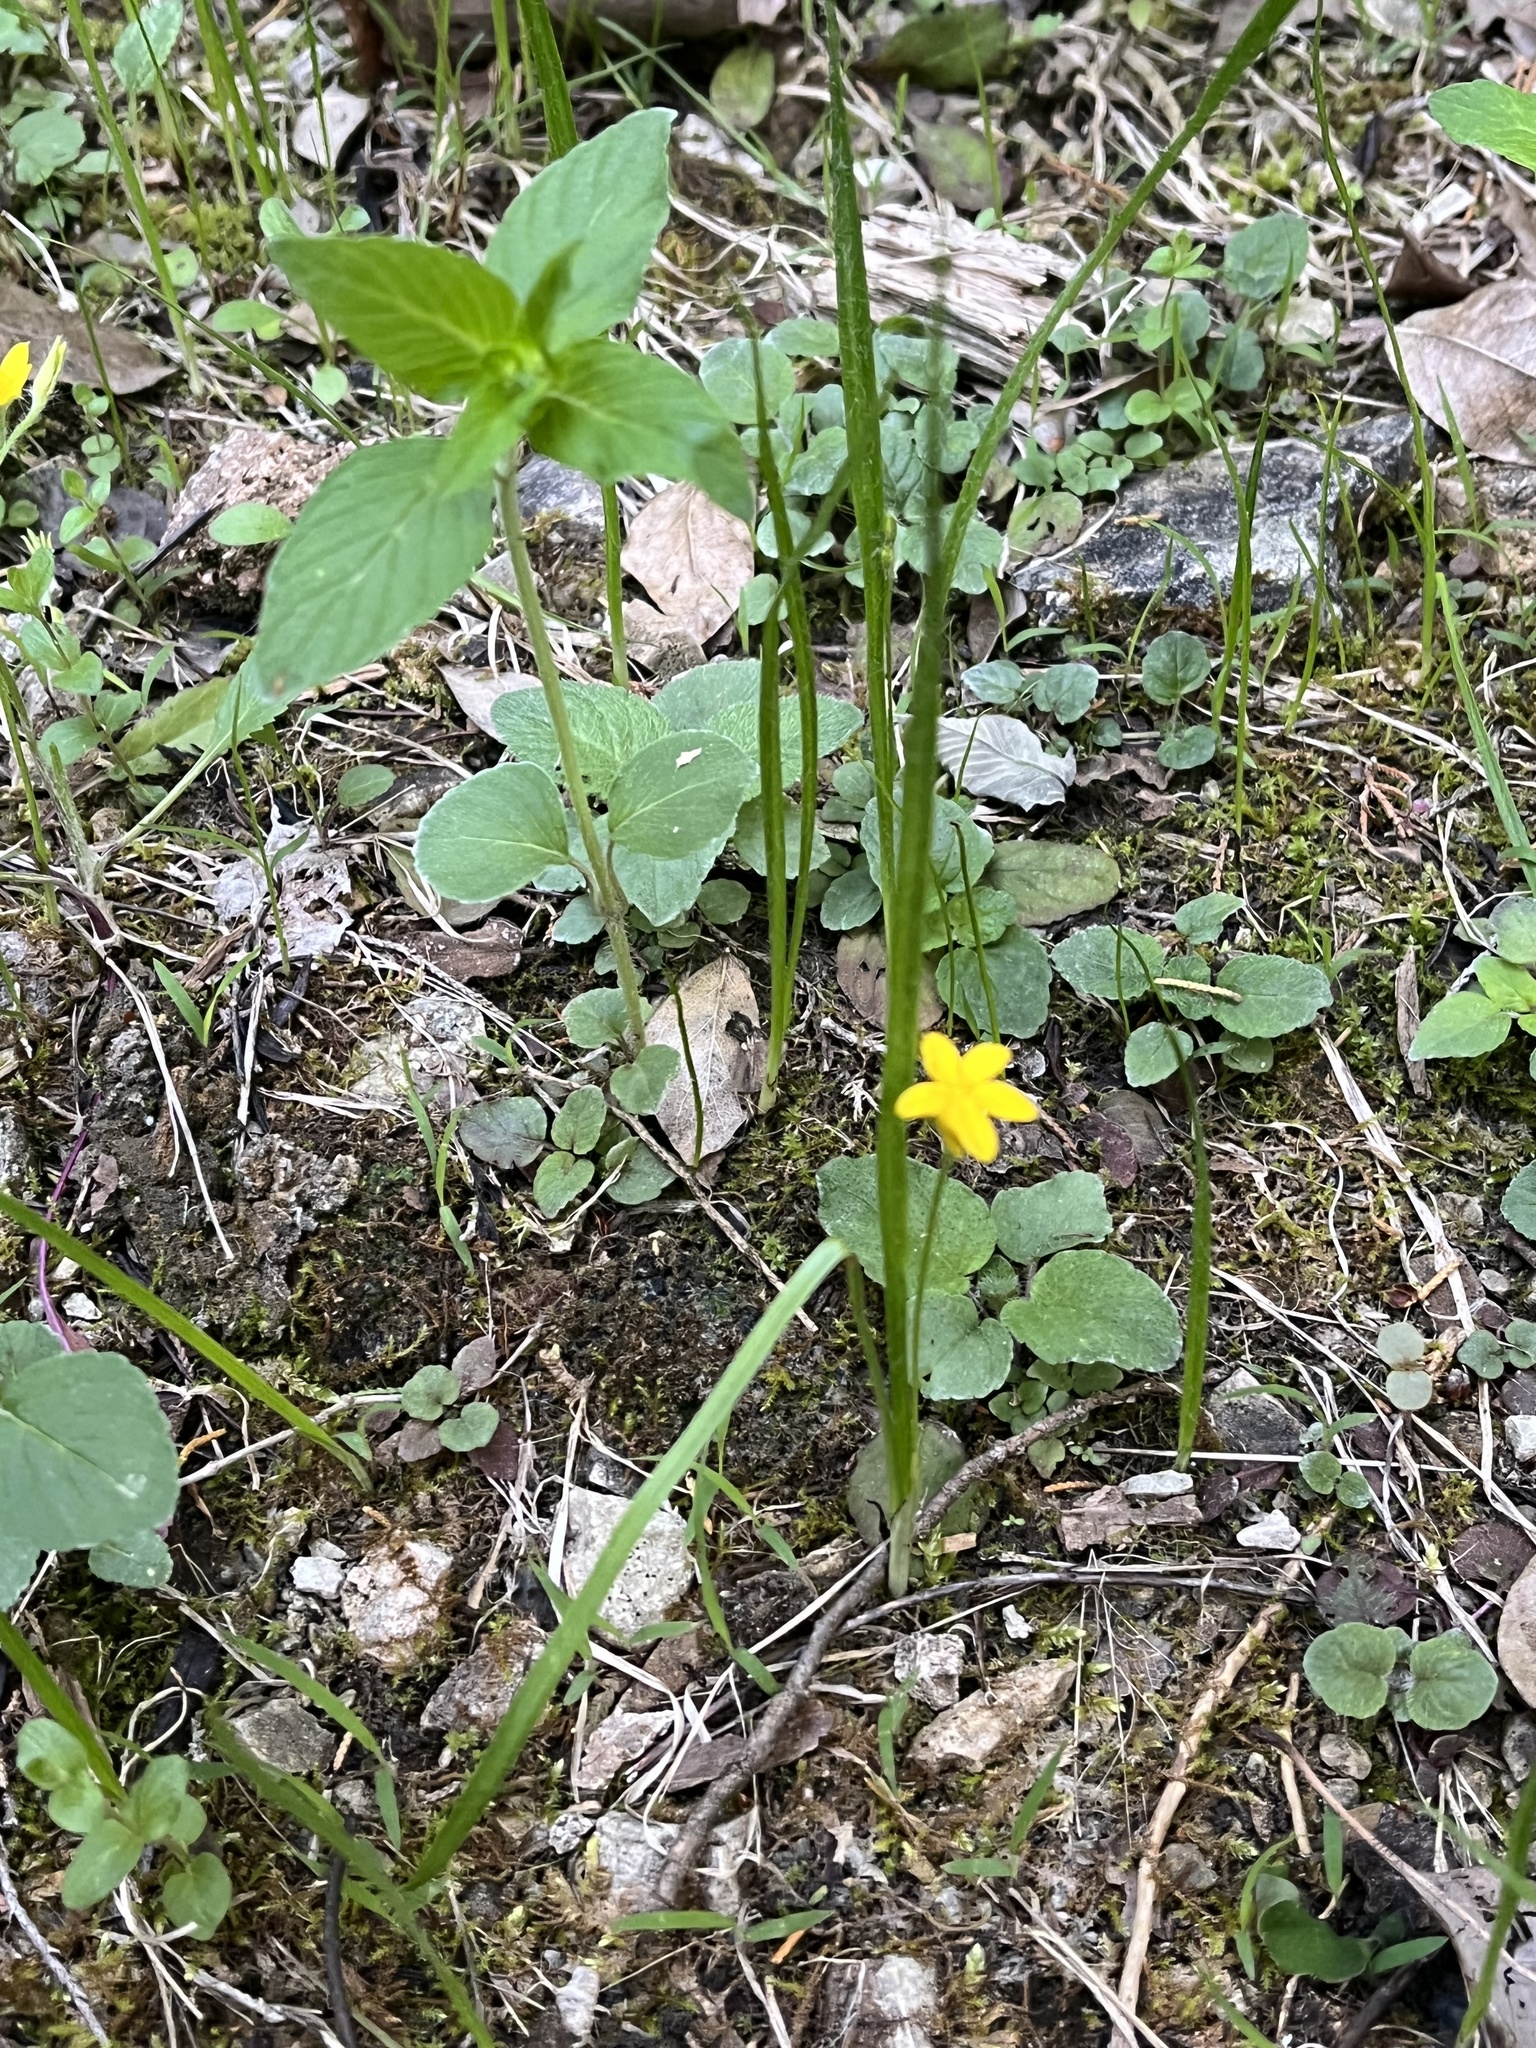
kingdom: Plantae
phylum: Tracheophyta
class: Liliopsida
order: Asparagales
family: Hypoxidaceae
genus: Hypoxis
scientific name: Hypoxis hirsuta
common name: Common goldstar
